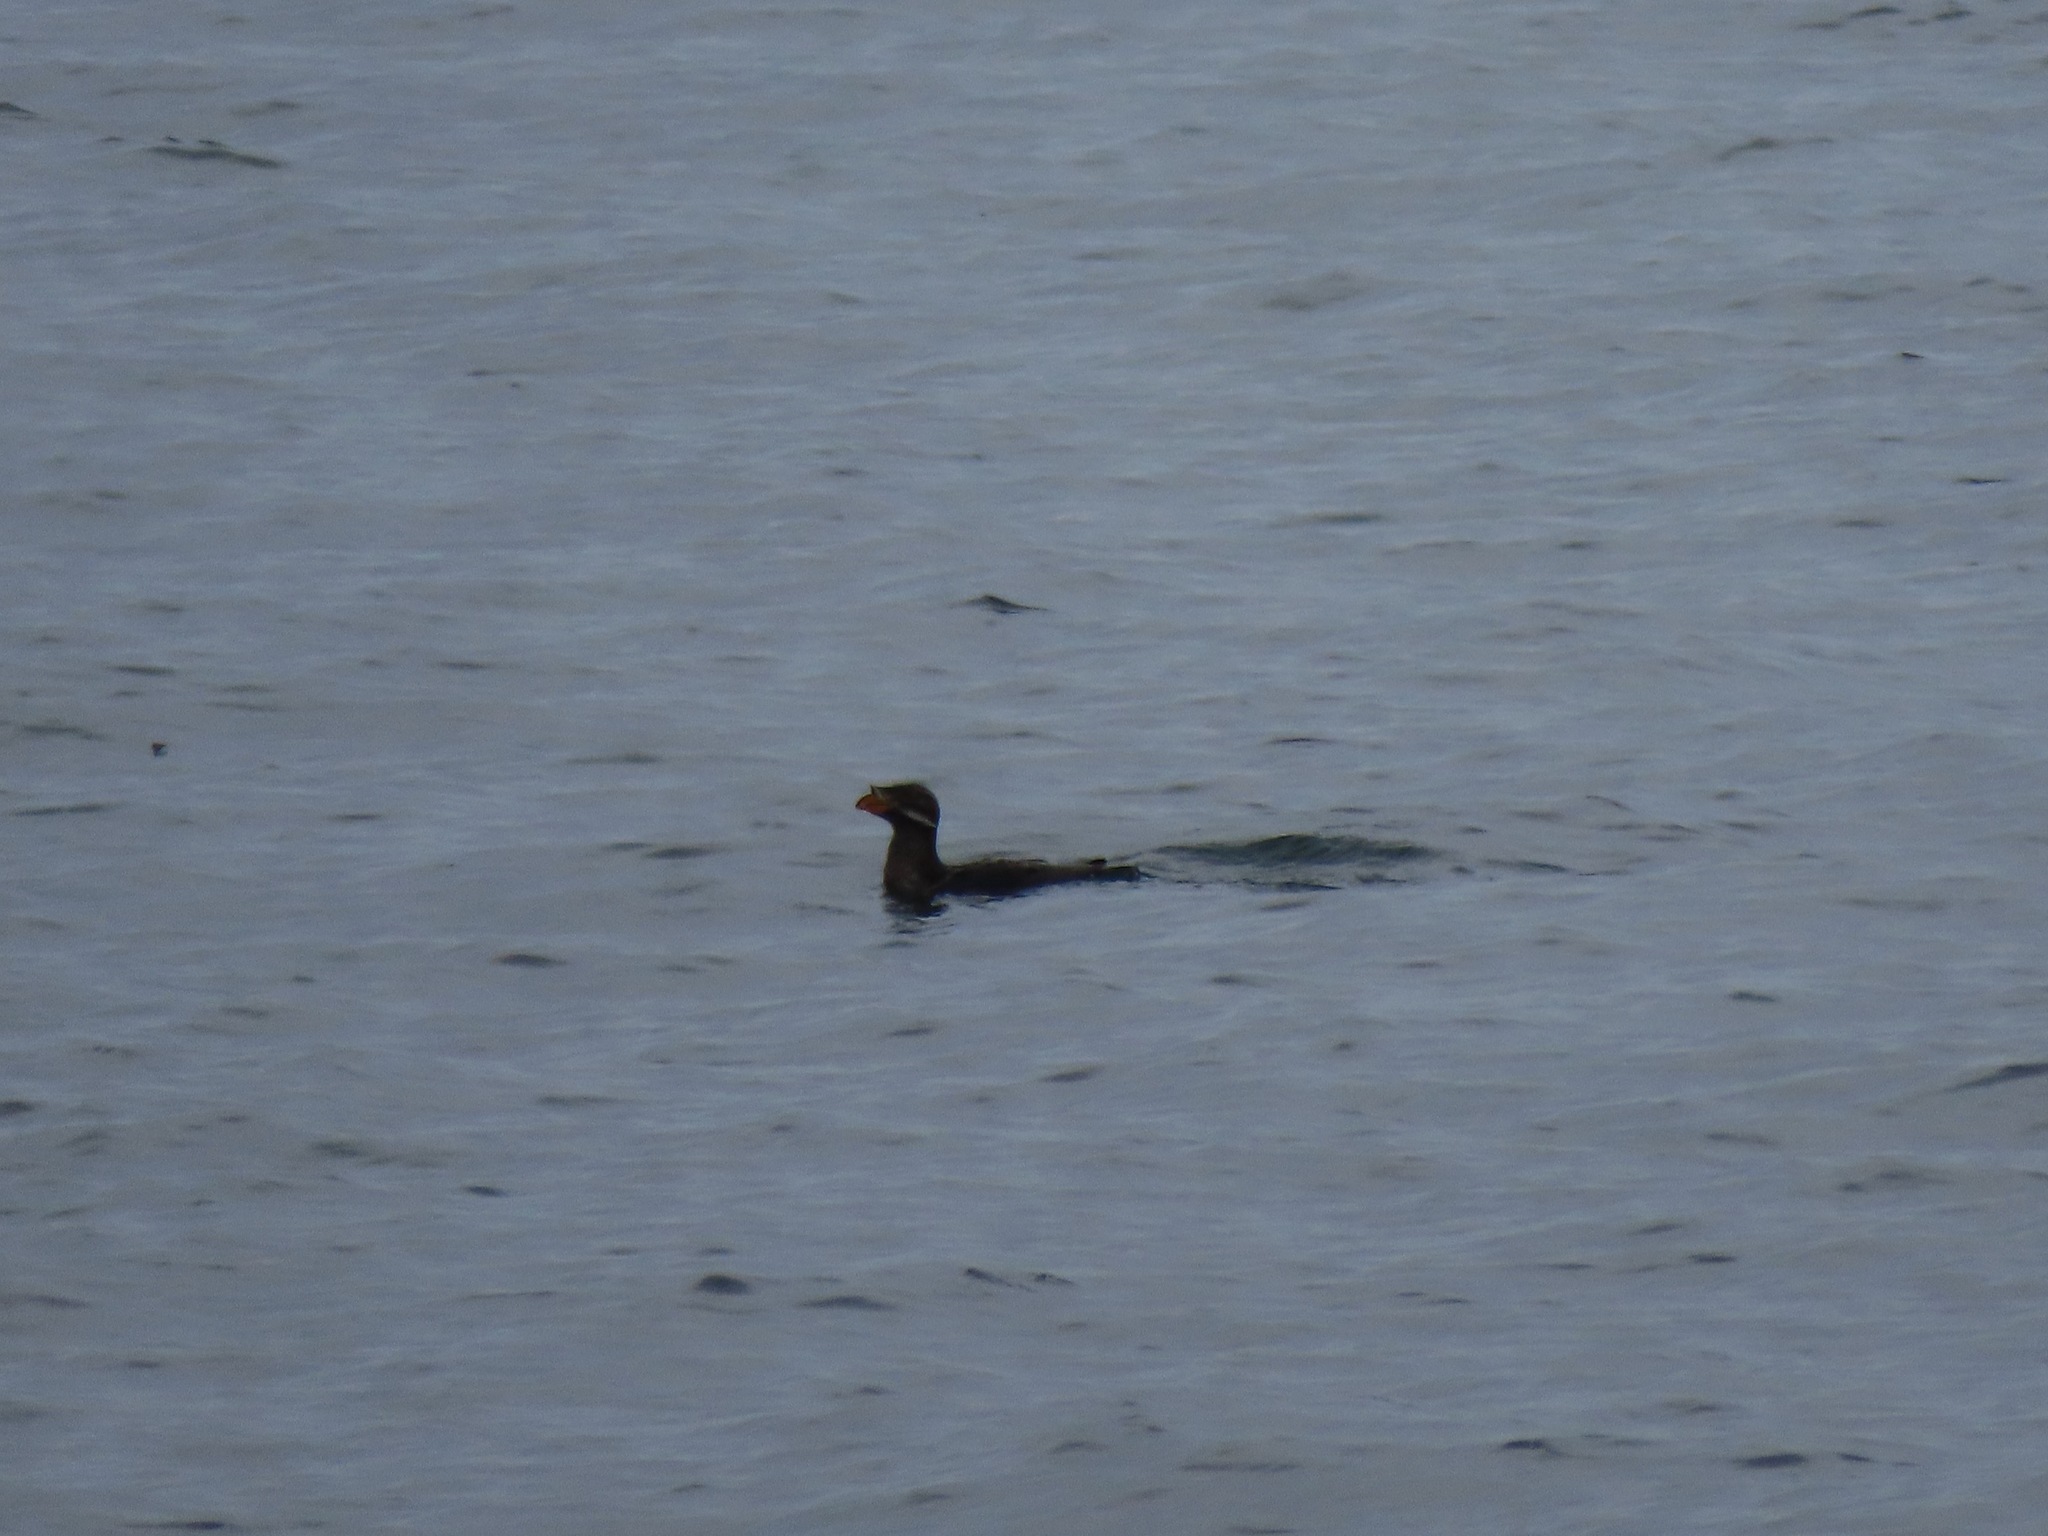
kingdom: Animalia
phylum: Chordata
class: Aves
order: Charadriiformes
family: Alcidae
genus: Cerorhinca
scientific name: Cerorhinca monocerata
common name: Rhinoceros auklet
